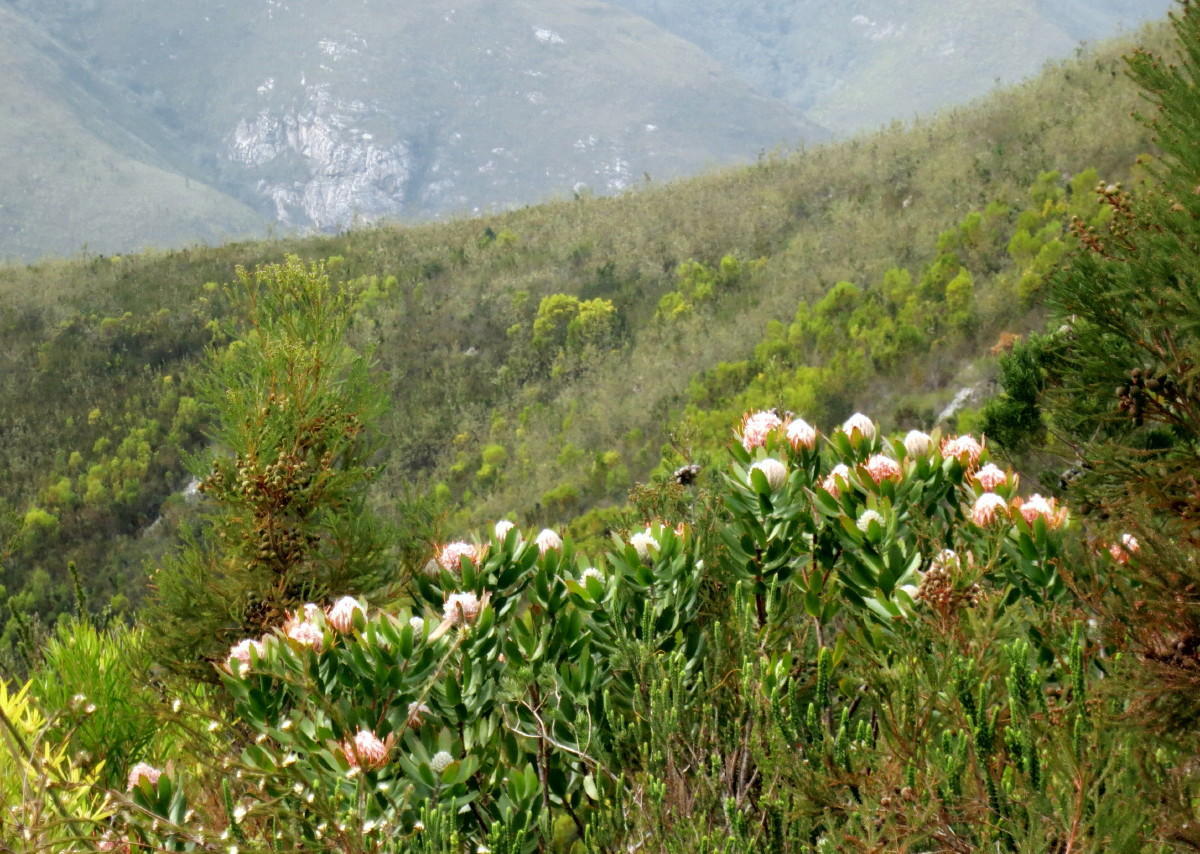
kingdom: Plantae
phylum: Tracheophyta
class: Magnoliopsida
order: Proteales
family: Proteaceae
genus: Leucospermum
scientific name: Leucospermum glabrum
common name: Outeniqua pincushion
